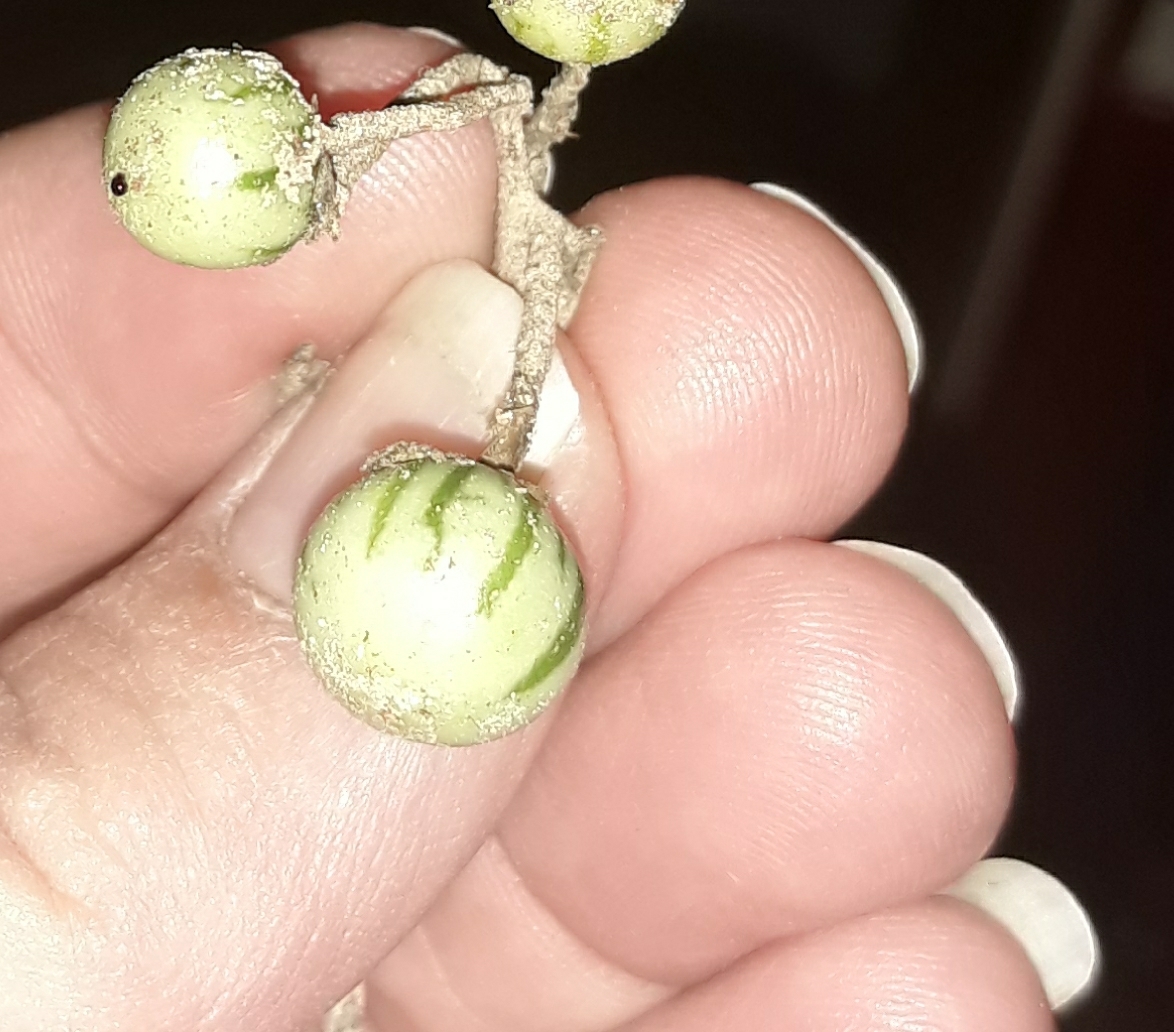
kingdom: Plantae
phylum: Tracheophyta
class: Magnoliopsida
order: Solanales
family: Solanaceae
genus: Solanum
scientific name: Solanum elaeagnifolium
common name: Silverleaf nightshade
